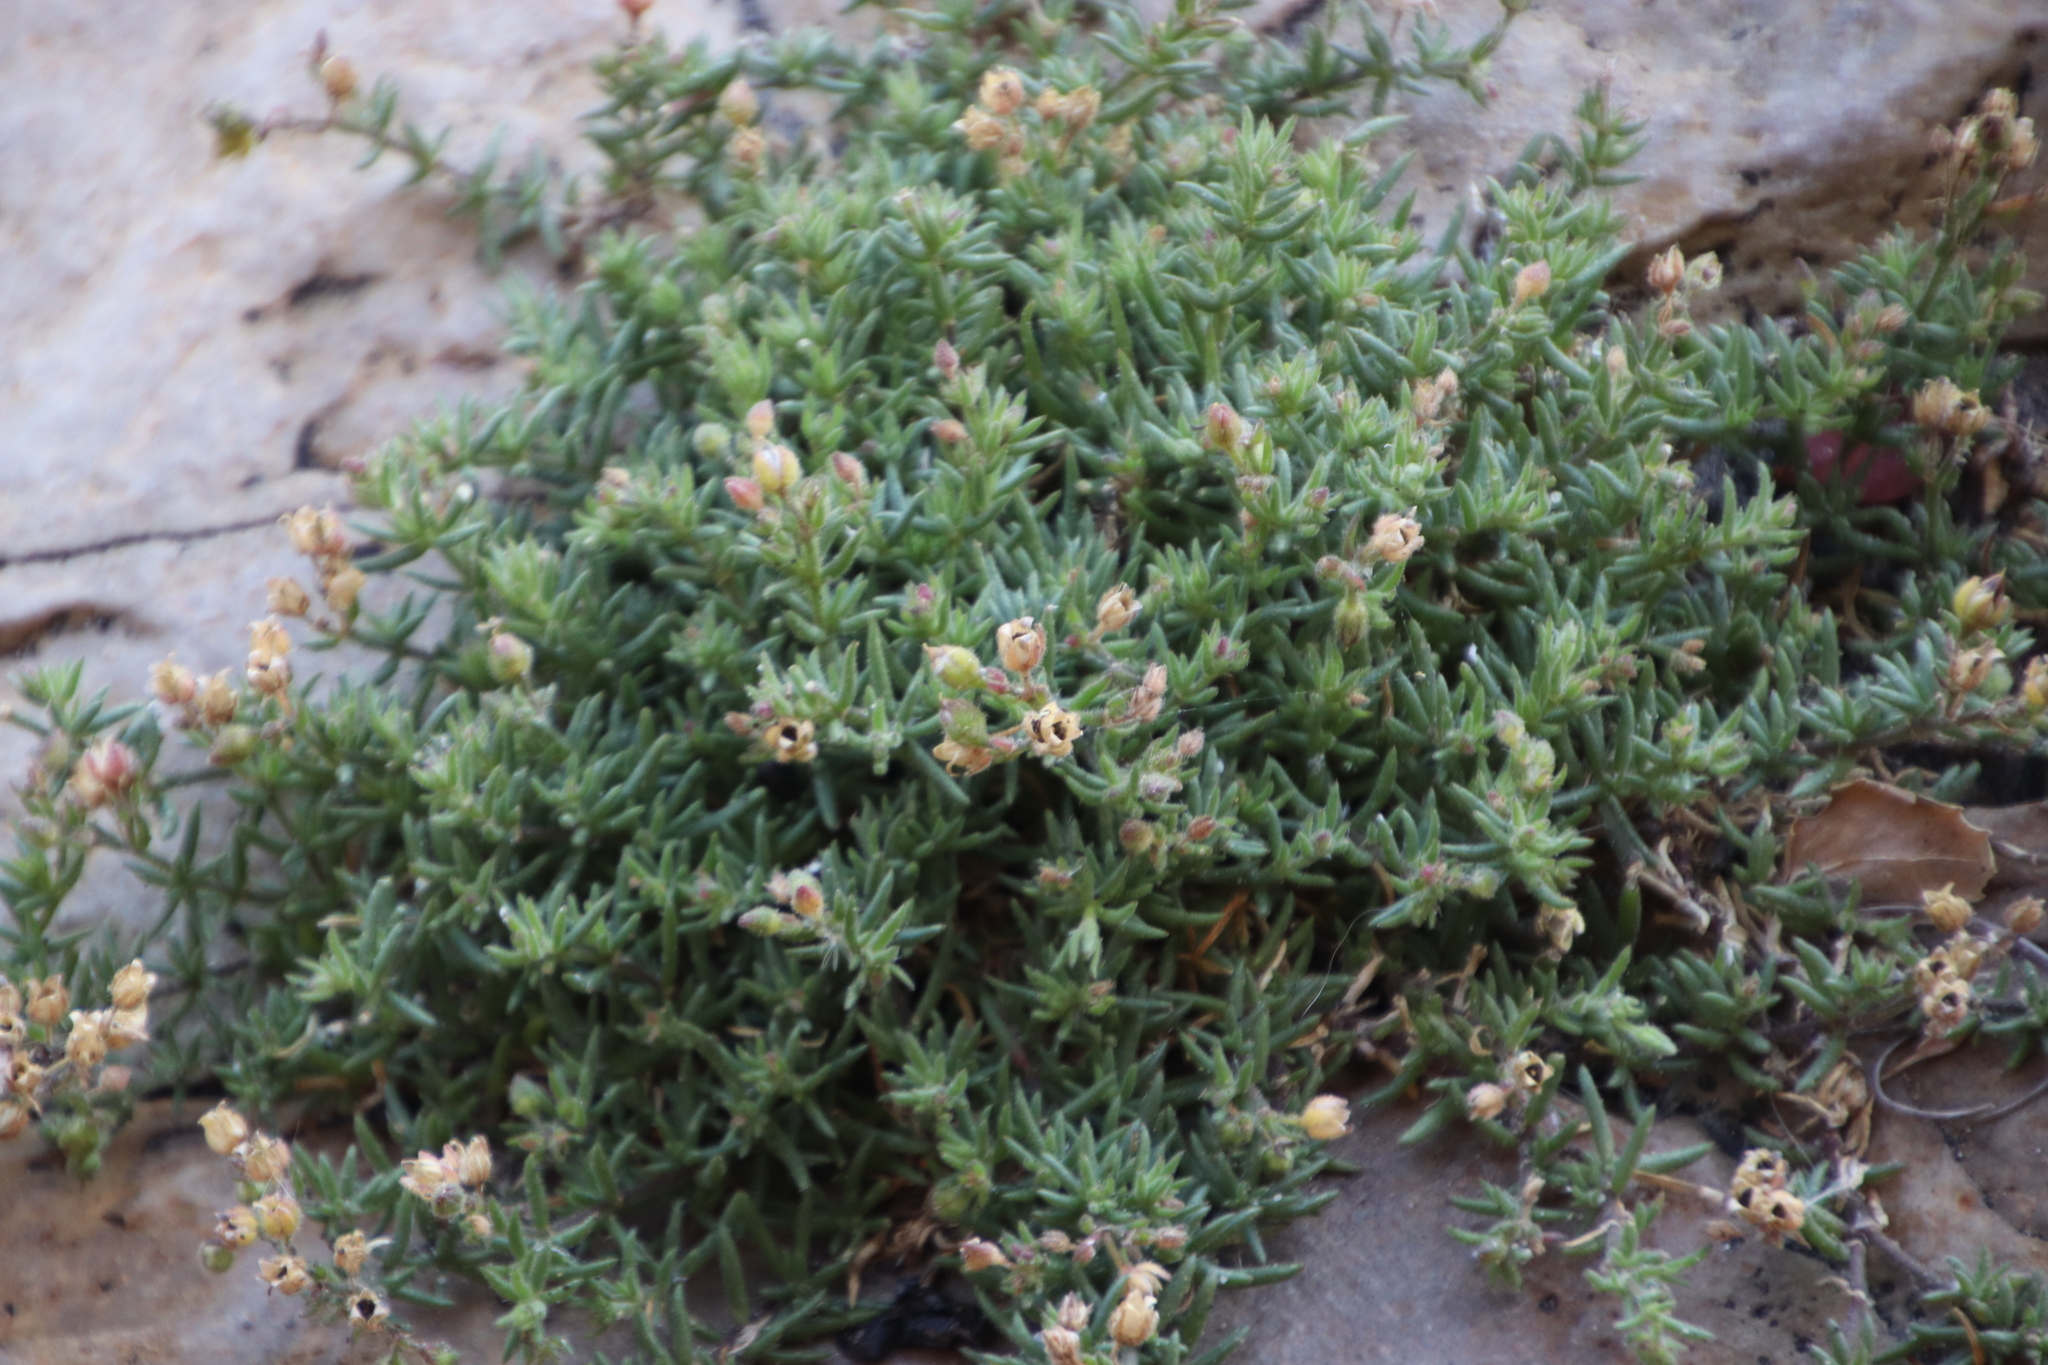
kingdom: Plantae
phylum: Tracheophyta
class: Magnoliopsida
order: Caryophyllales
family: Caryophyllaceae
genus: Spergularia
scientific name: Spergularia media
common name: Greater sea-spurrey
